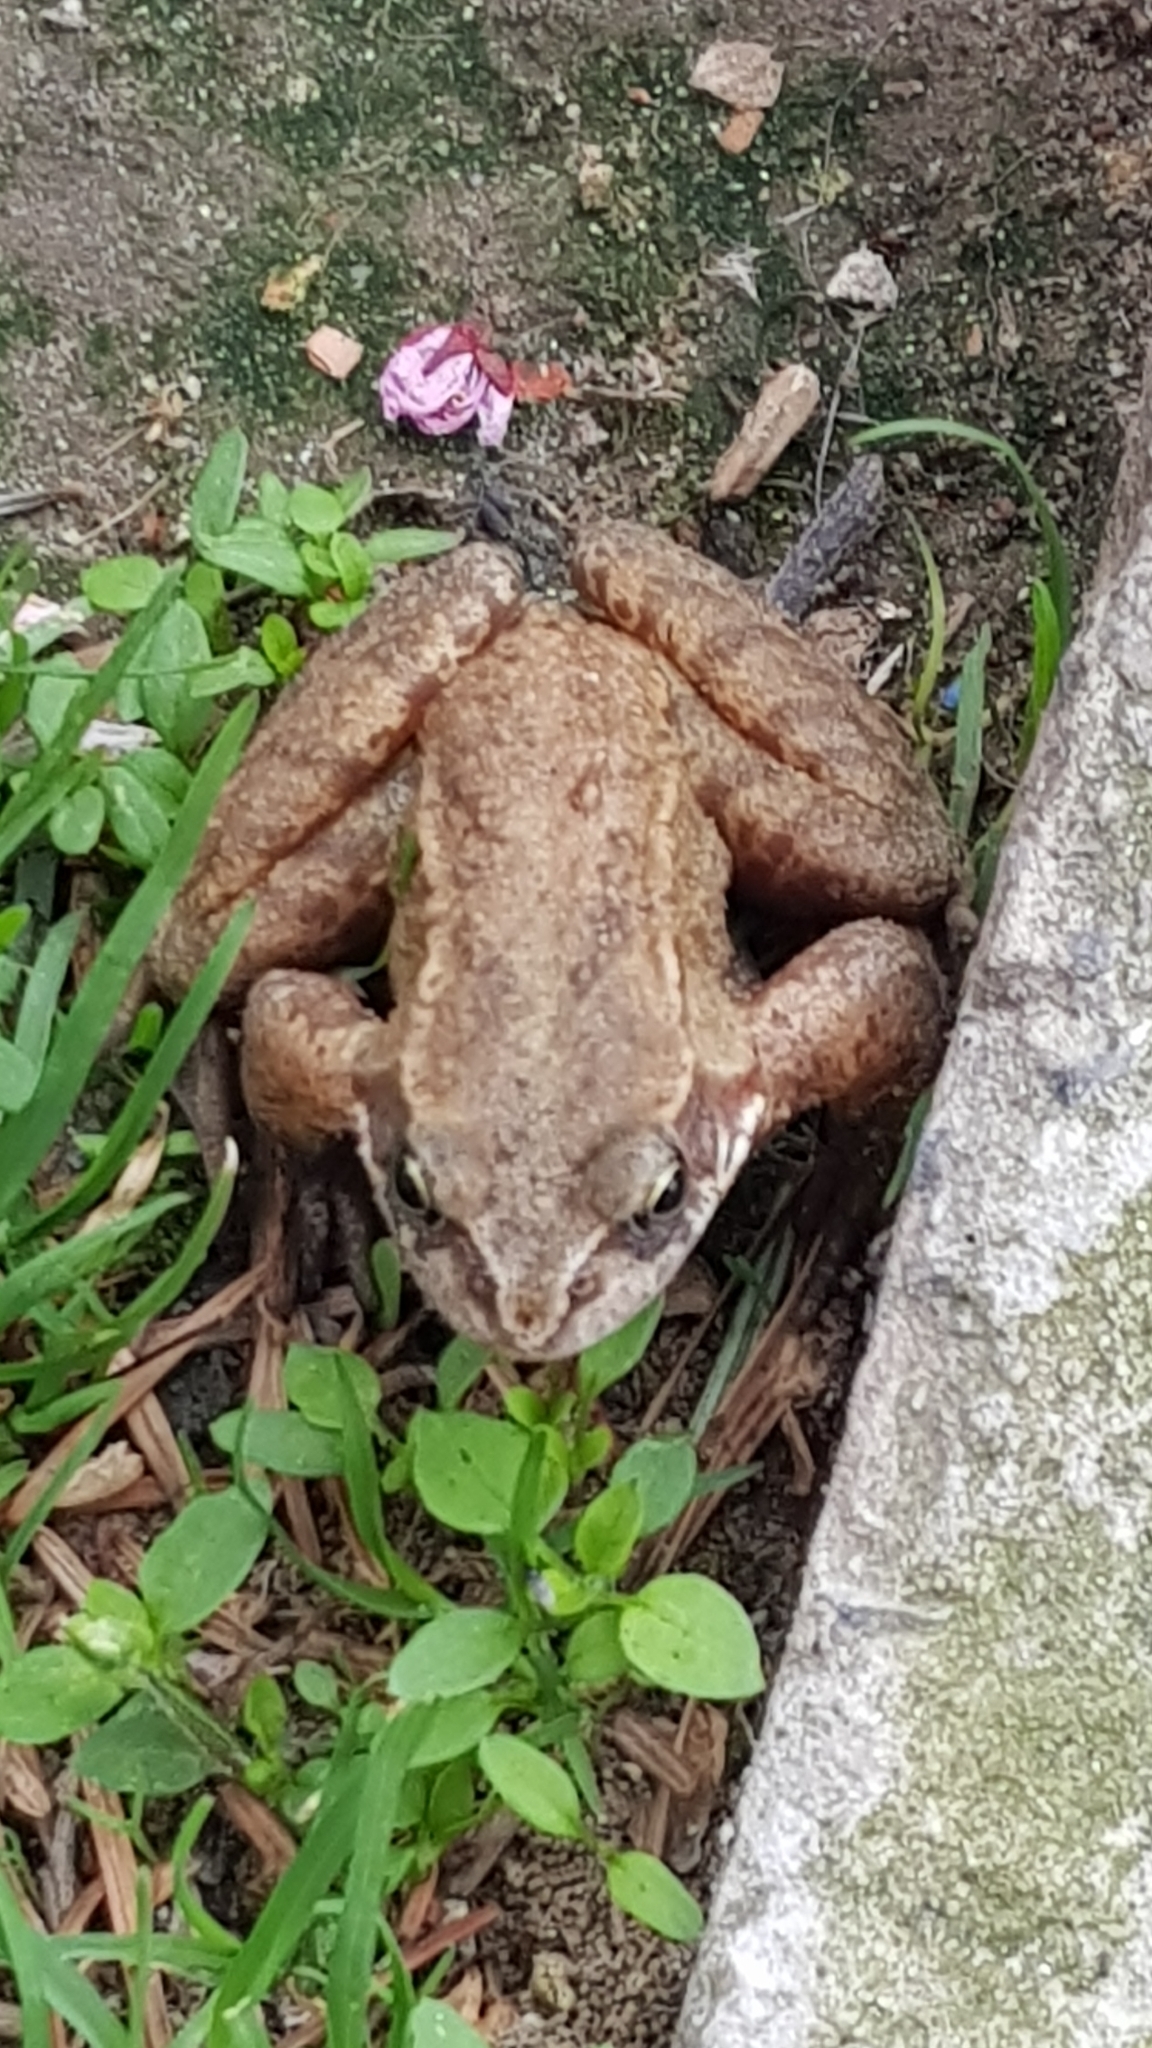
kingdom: Animalia
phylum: Chordata
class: Amphibia
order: Anura
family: Ranidae
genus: Rana
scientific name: Rana temporaria
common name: Common frog
